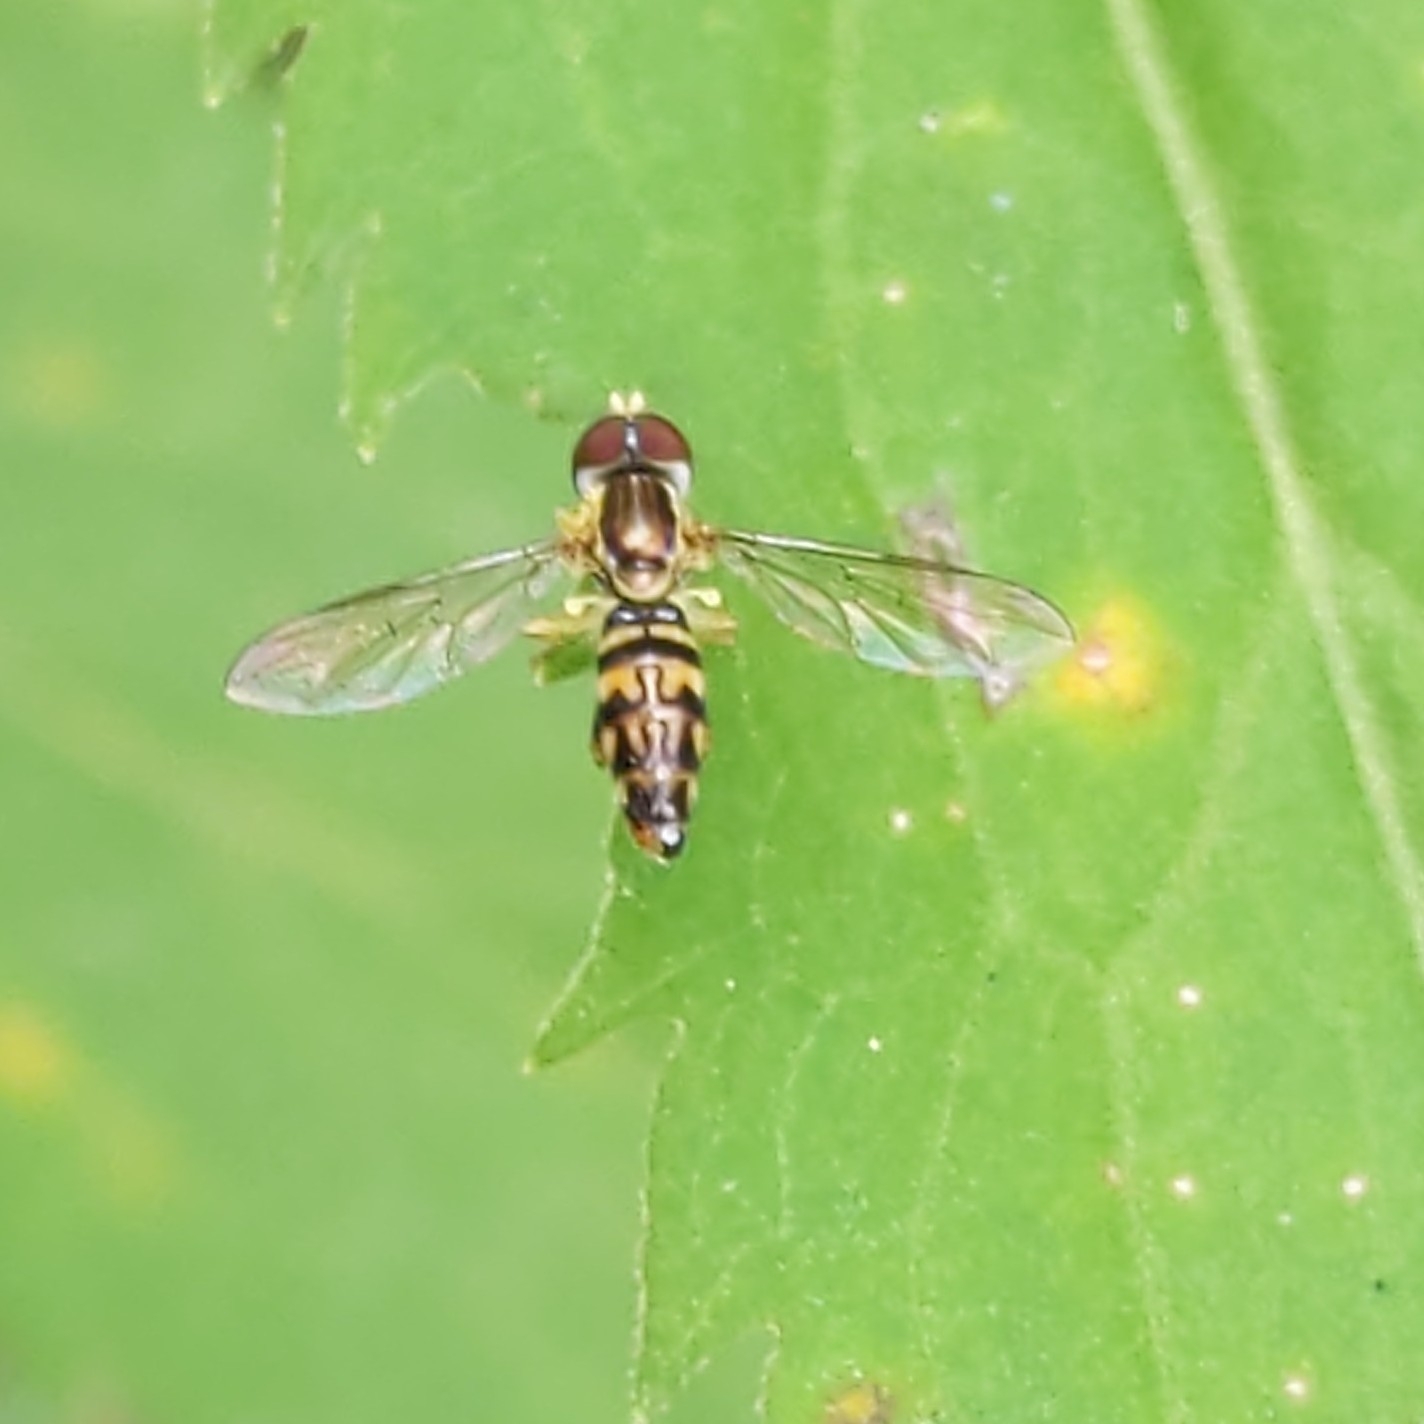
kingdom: Animalia
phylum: Arthropoda
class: Insecta
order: Diptera
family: Syrphidae
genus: Toxomerus
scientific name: Toxomerus geminatus
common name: Eastern calligrapher
